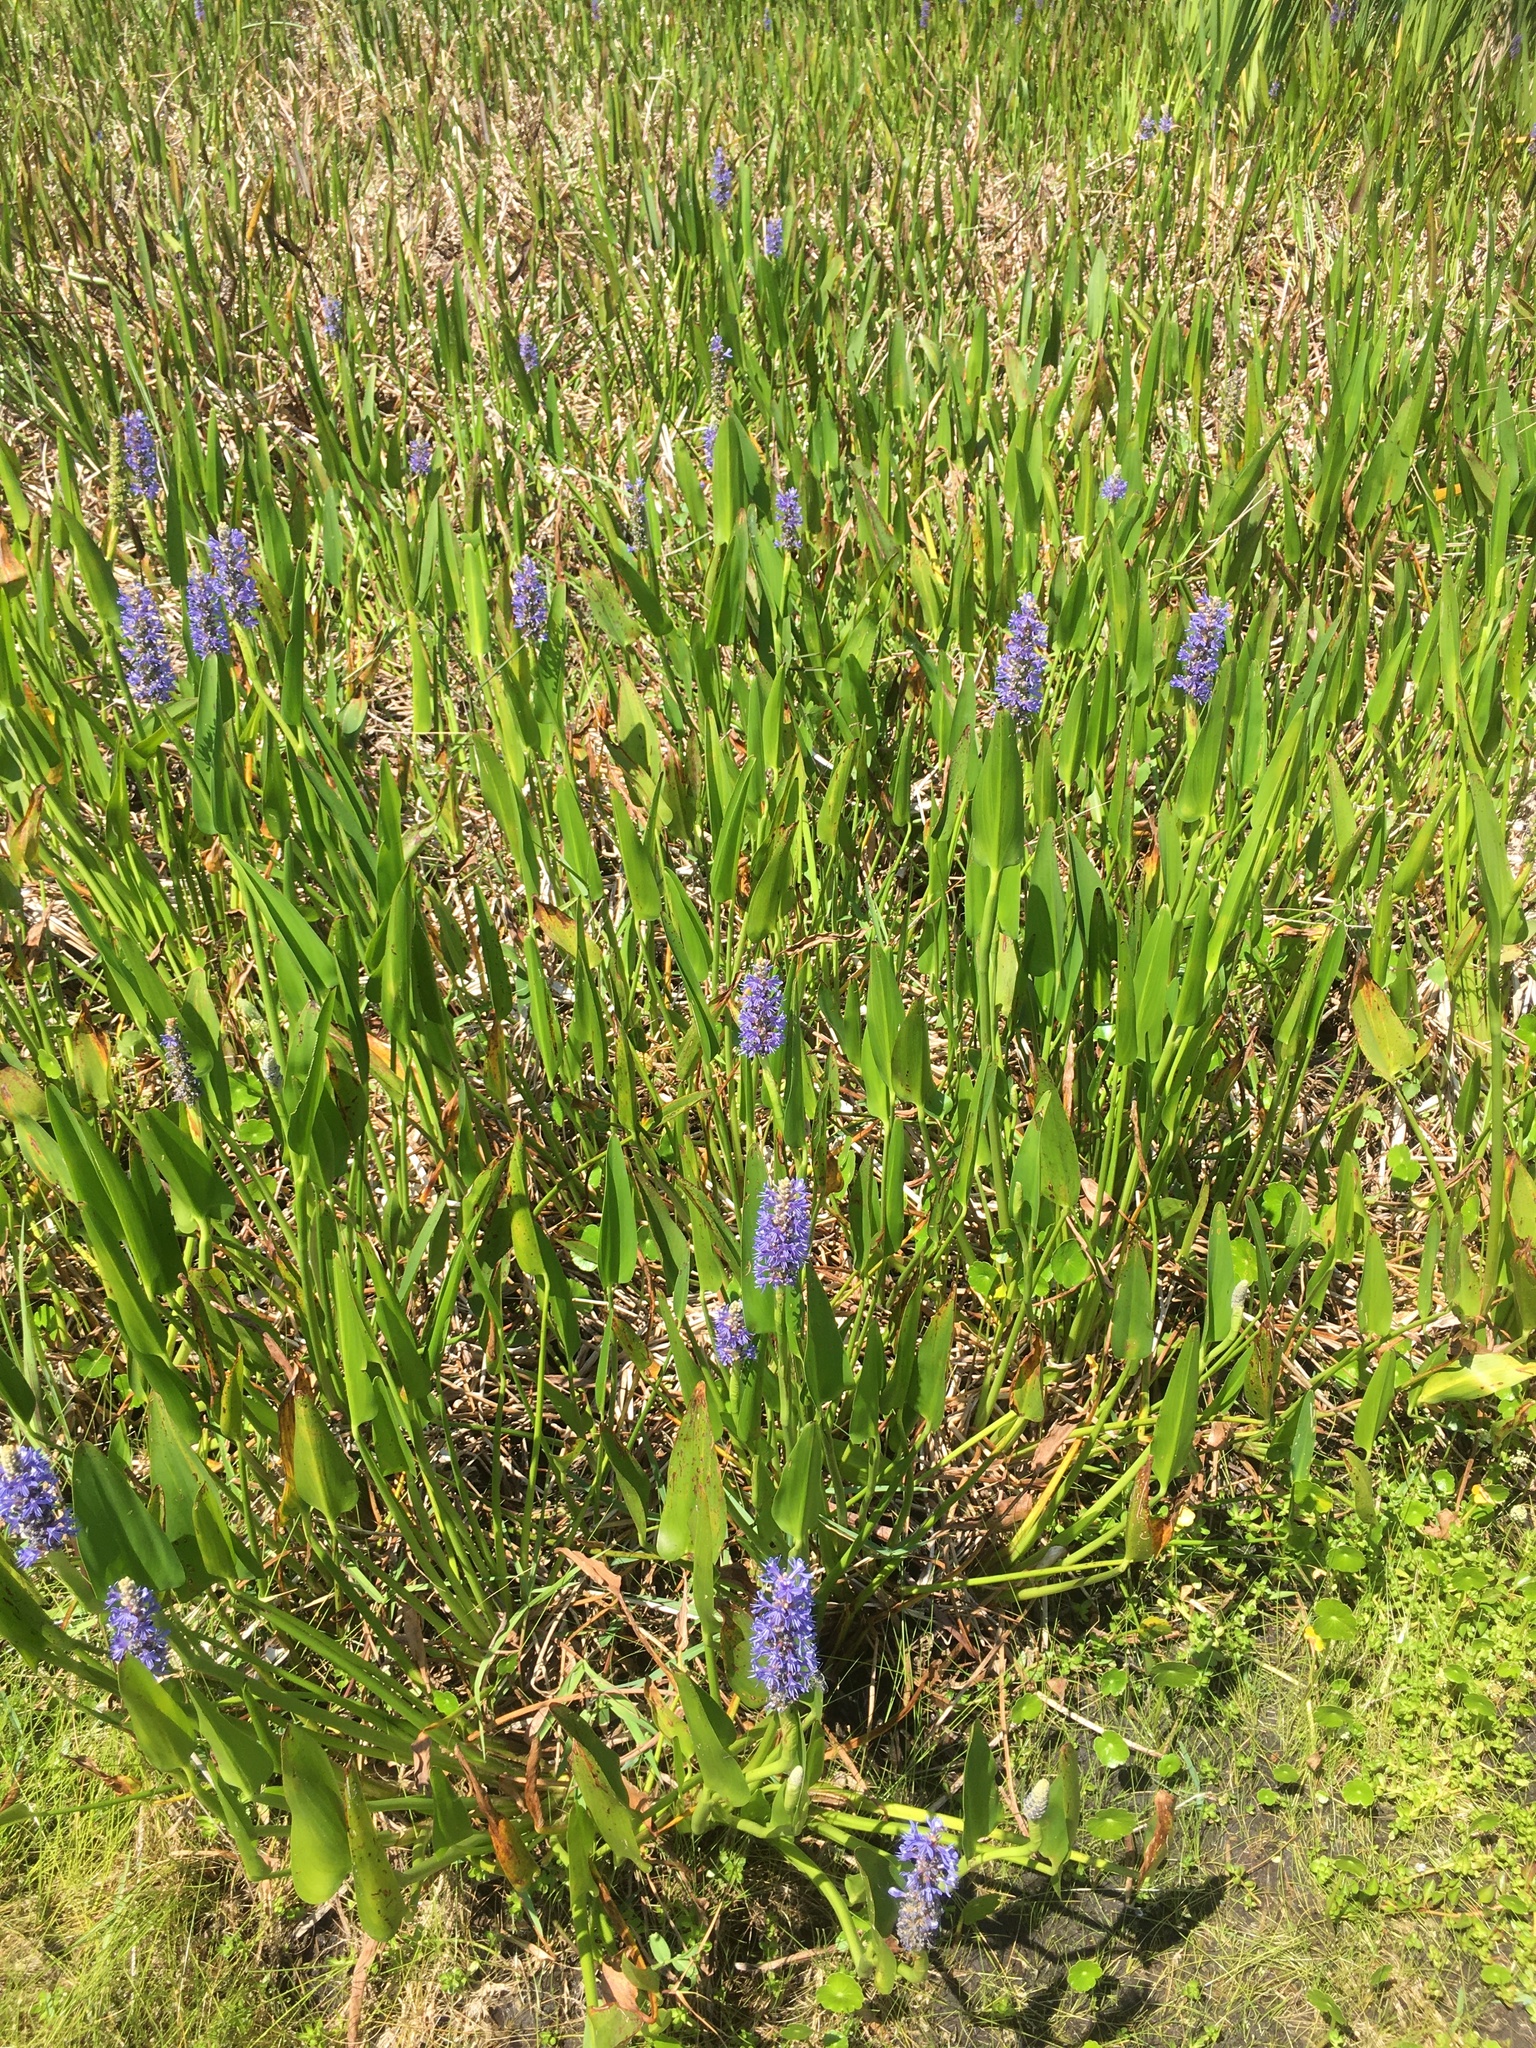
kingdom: Plantae
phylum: Tracheophyta
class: Liliopsida
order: Commelinales
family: Pontederiaceae
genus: Pontederia
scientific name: Pontederia cordata
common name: Pickerelweed
